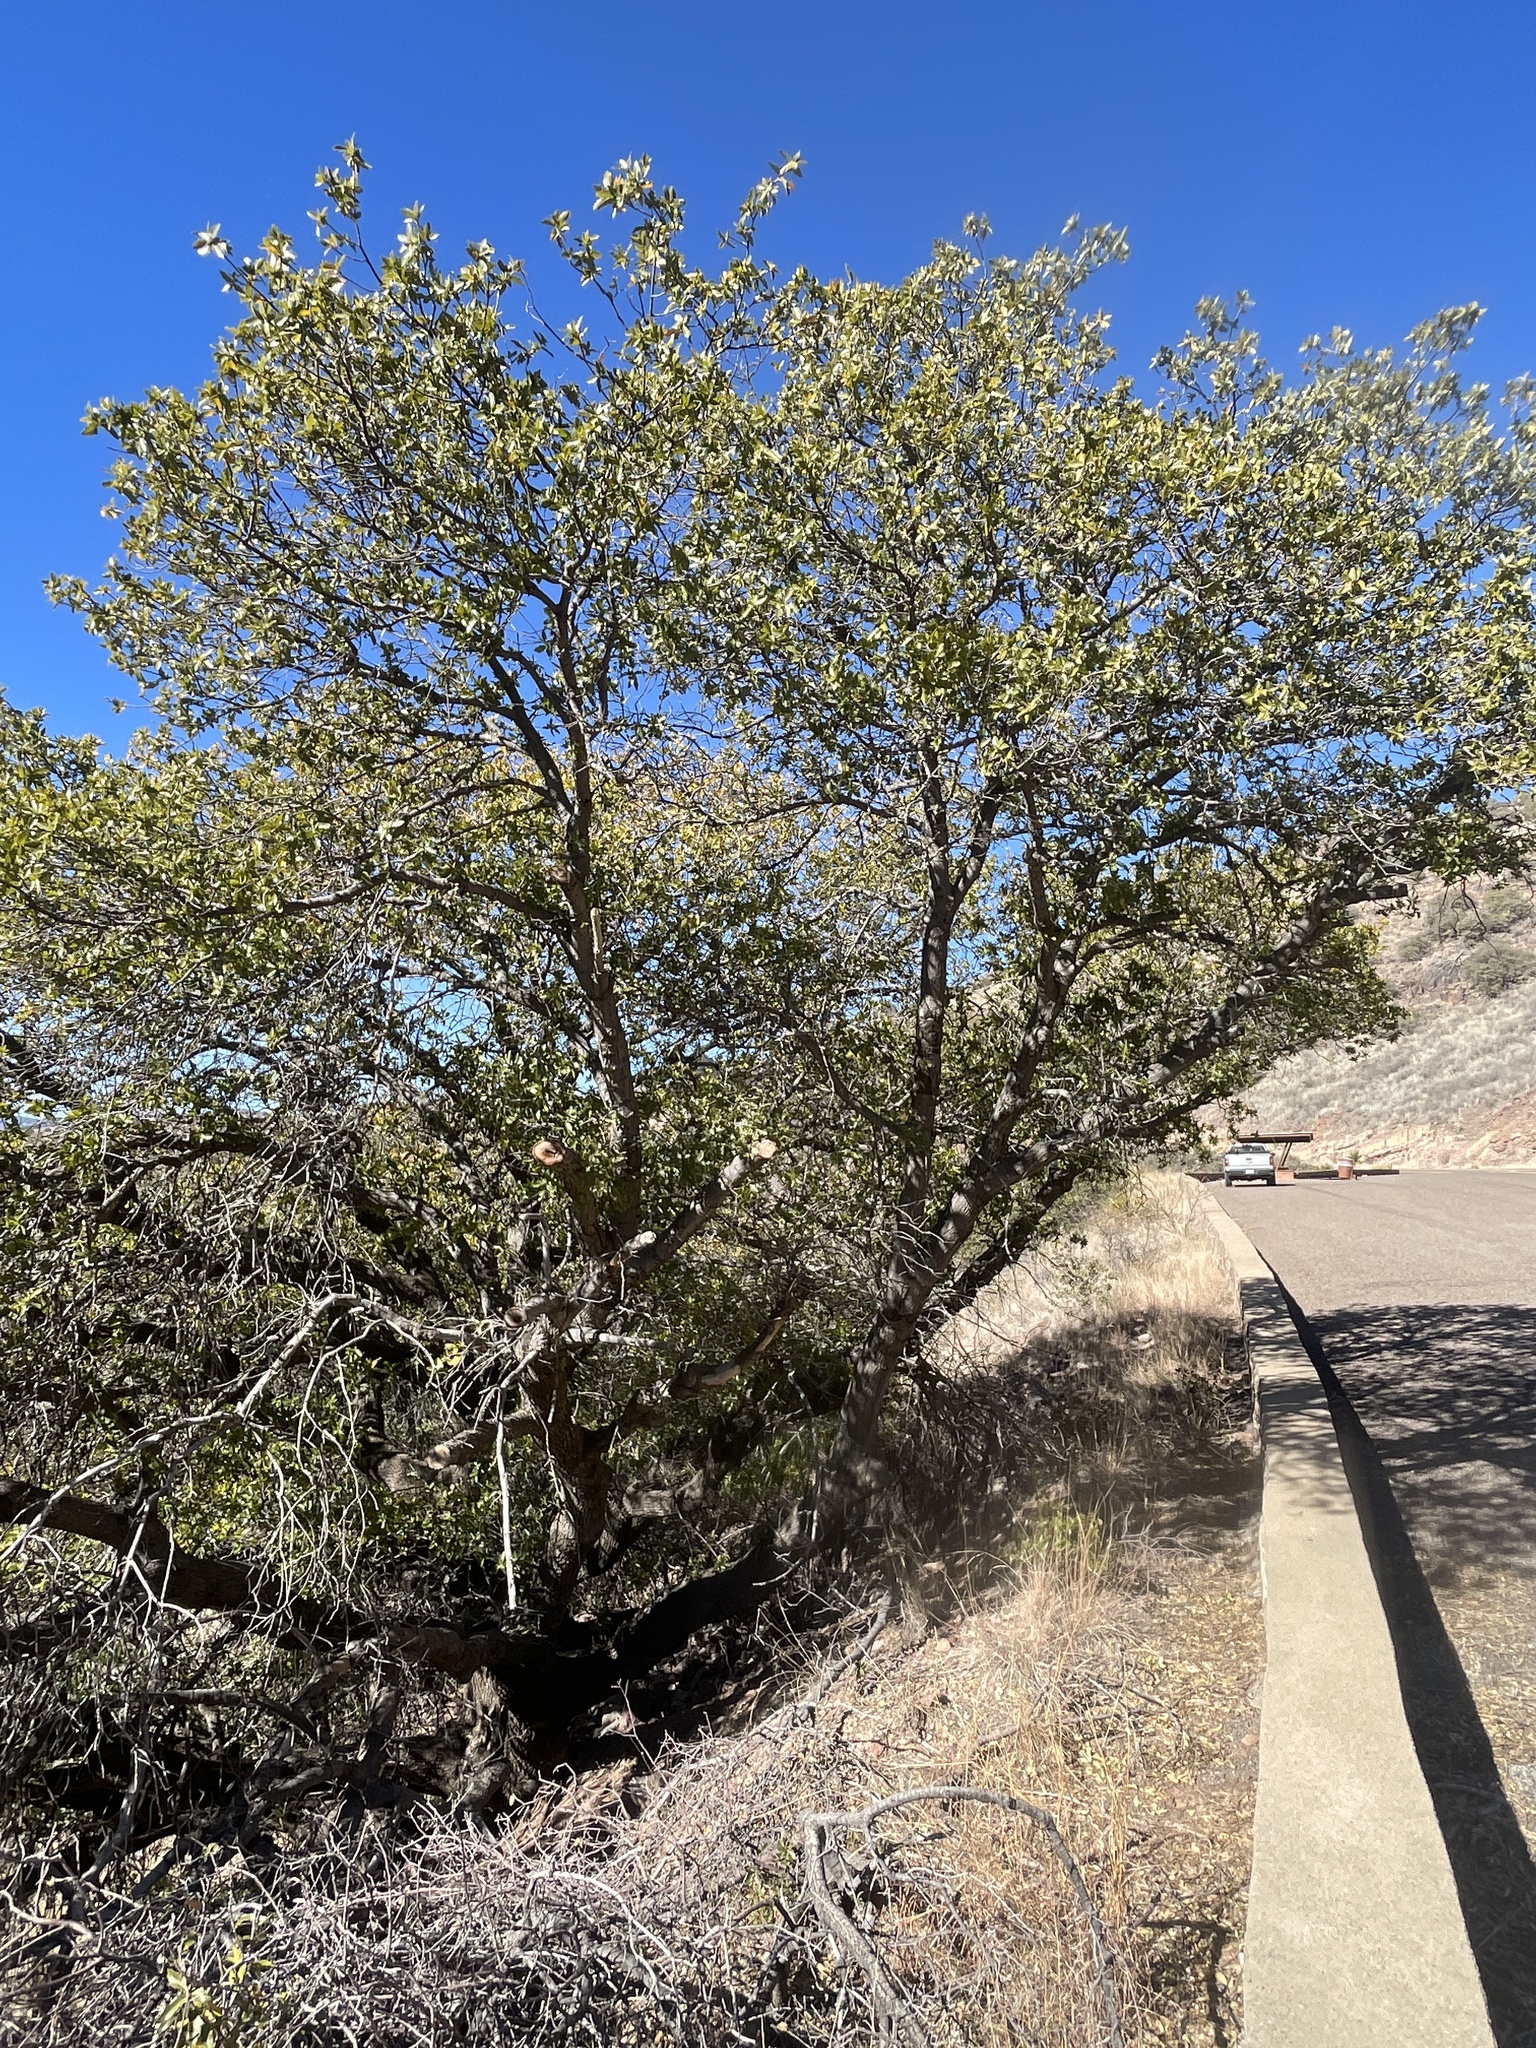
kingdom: Plantae
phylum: Tracheophyta
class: Magnoliopsida
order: Fagales
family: Fagaceae
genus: Quercus
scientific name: Quercus emoryi
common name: Emory oak
